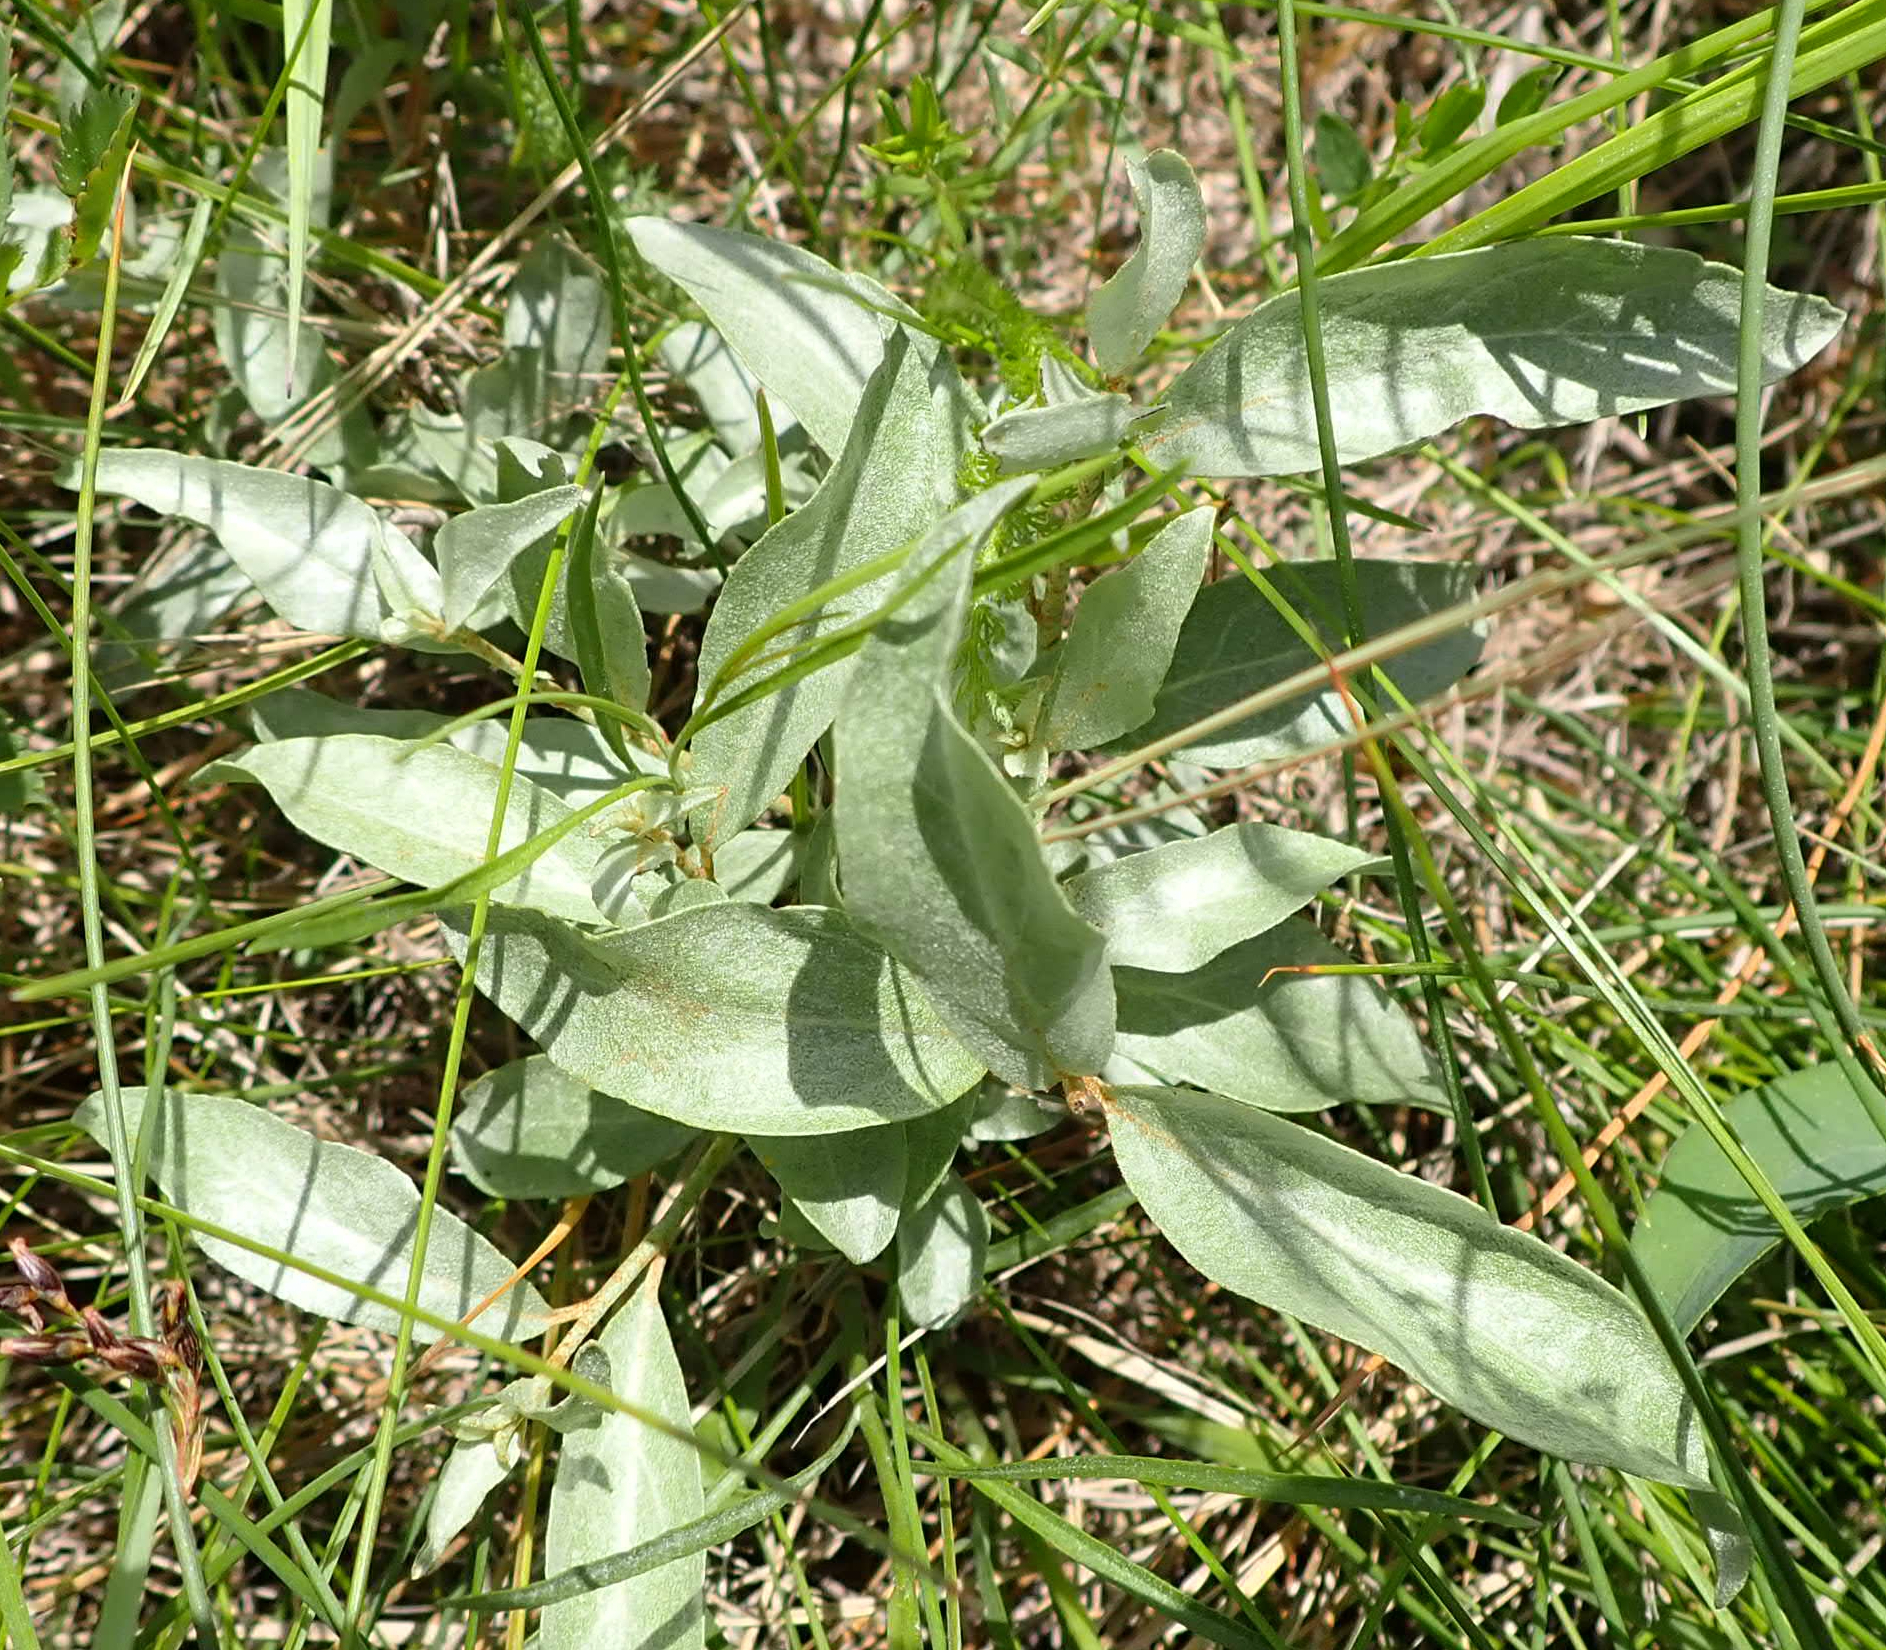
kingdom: Plantae
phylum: Tracheophyta
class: Magnoliopsida
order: Rosales
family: Elaeagnaceae
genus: Elaeagnus
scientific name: Elaeagnus commutata
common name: Silverberry
